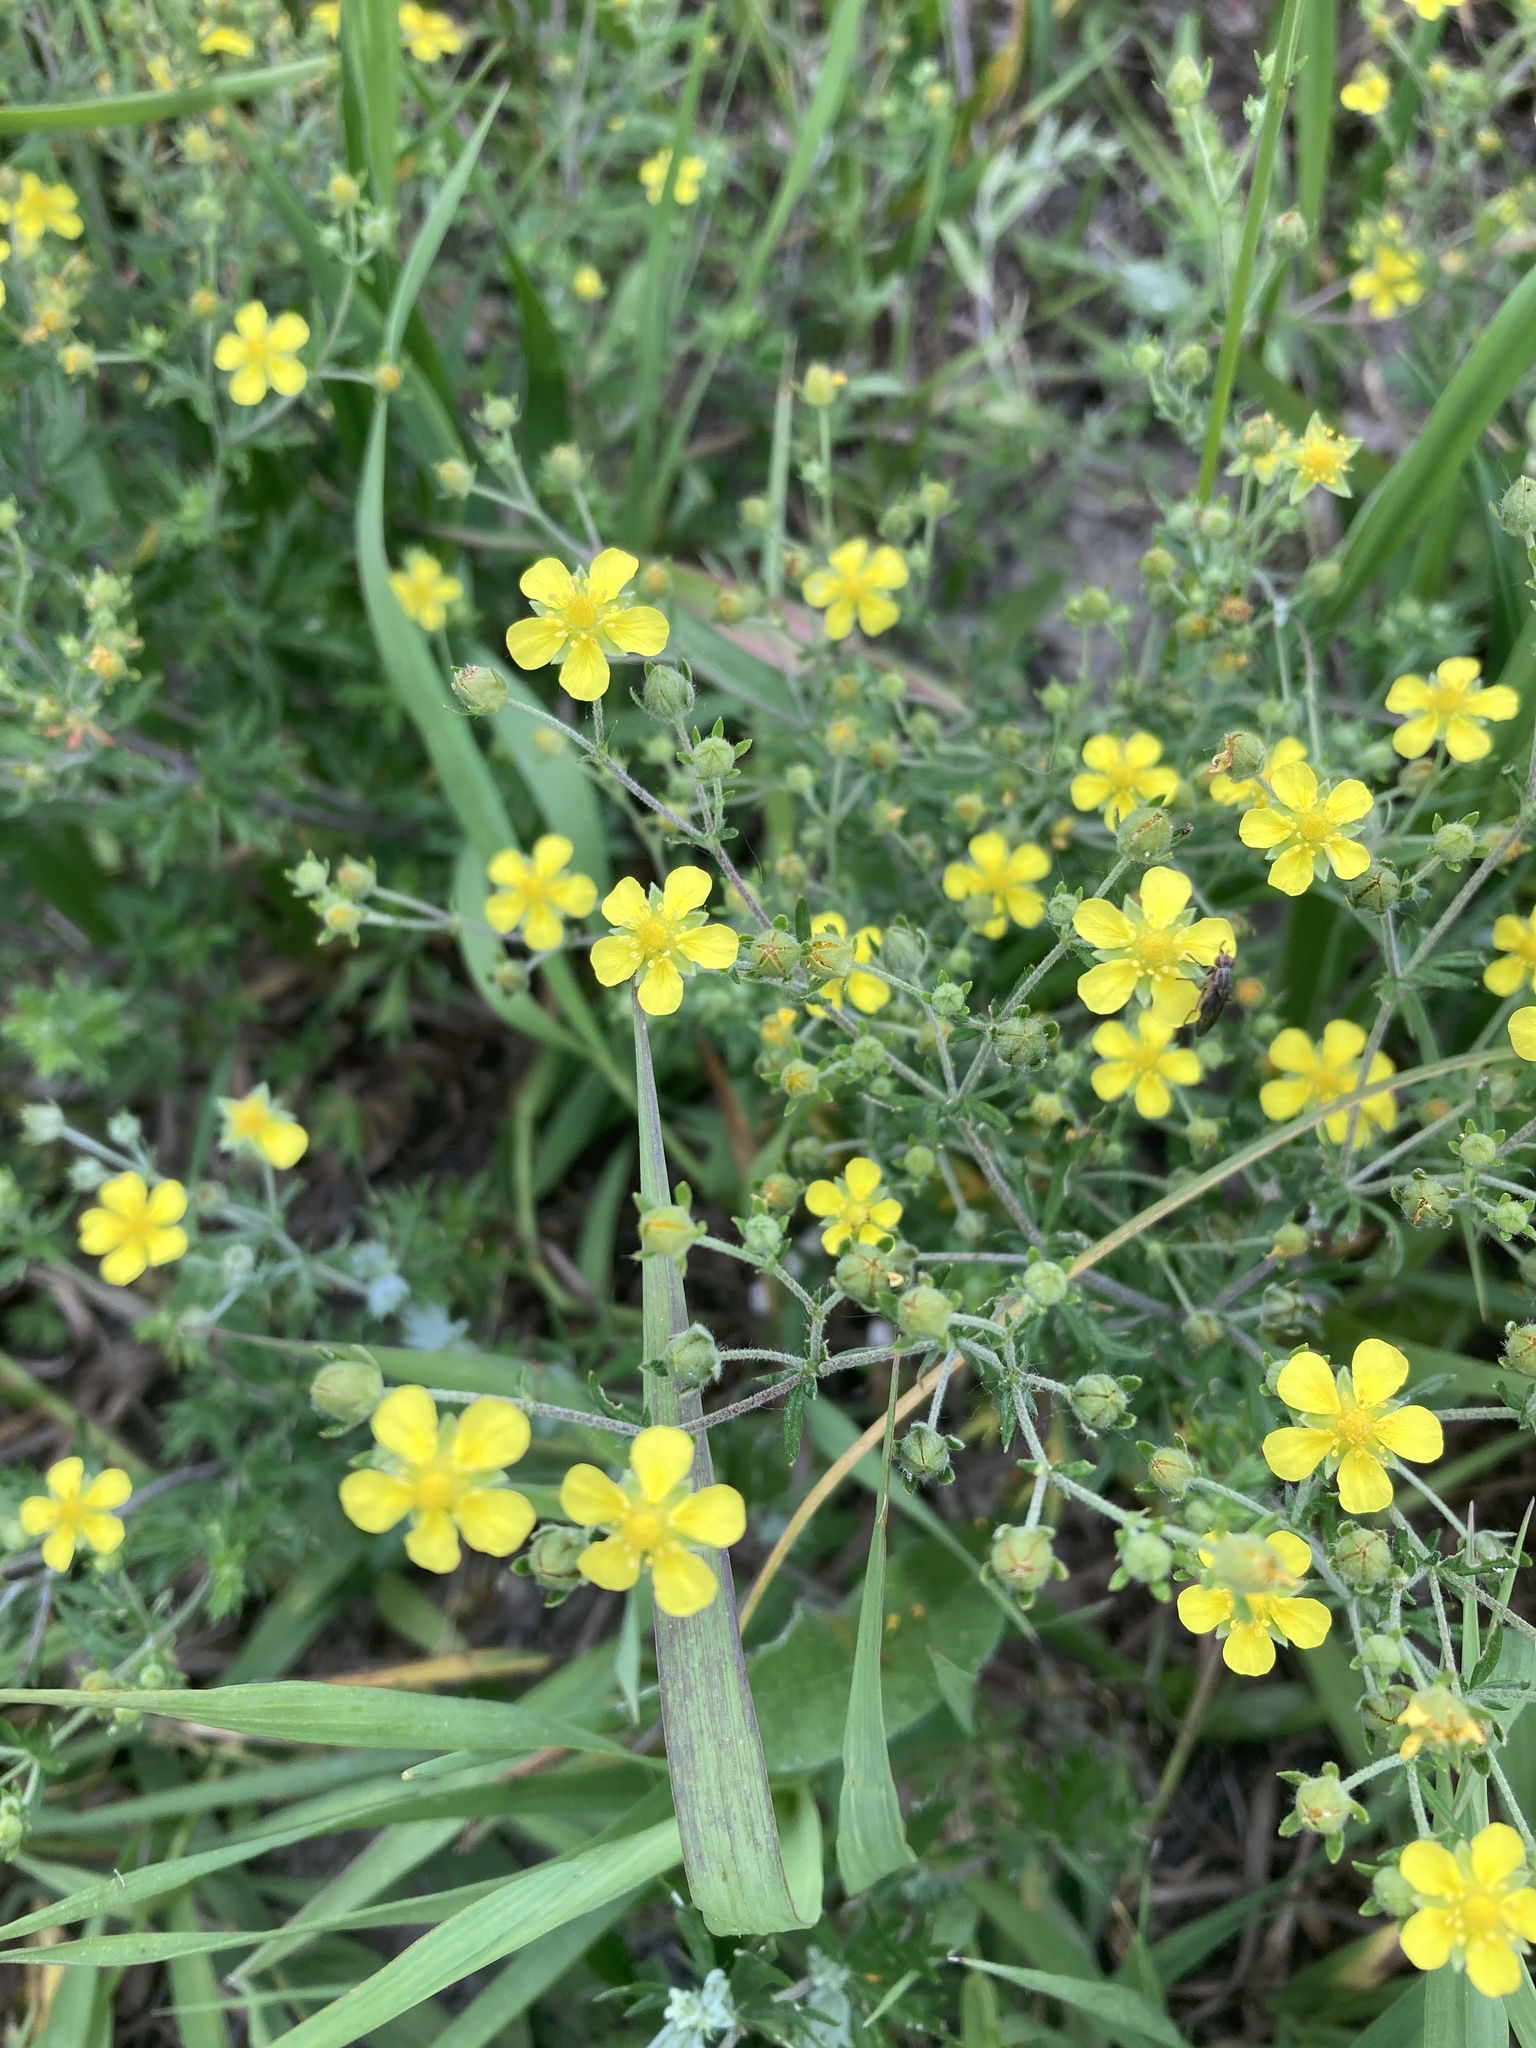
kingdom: Plantae
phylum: Tracheophyta
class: Magnoliopsida
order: Rosales
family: Rosaceae
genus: Potentilla
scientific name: Potentilla argentea
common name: Hoary cinquefoil
